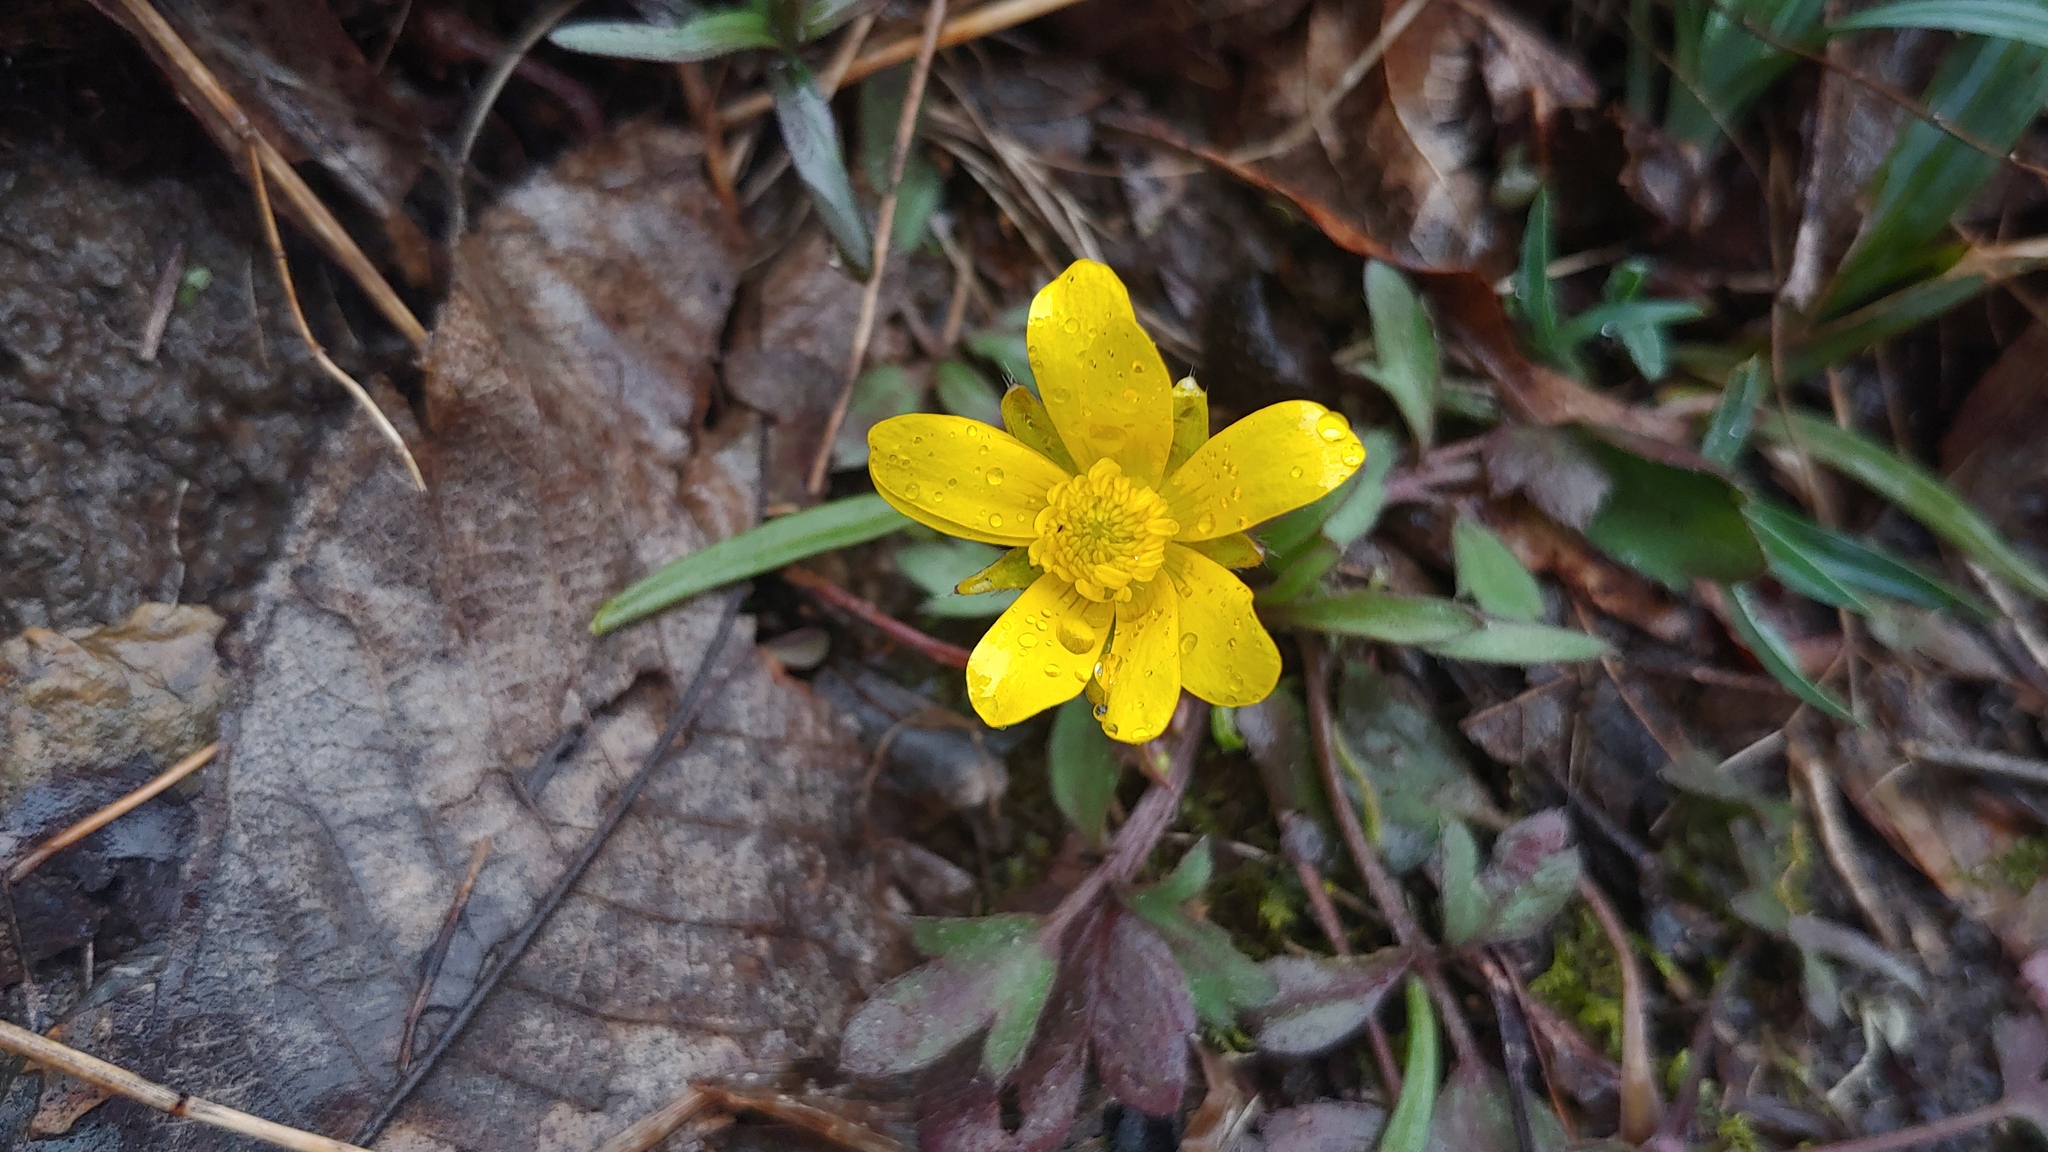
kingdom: Plantae
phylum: Tracheophyta
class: Magnoliopsida
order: Ranunculales
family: Ranunculaceae
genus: Ranunculus
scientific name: Ranunculus fascicularis
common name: Early buttercup
